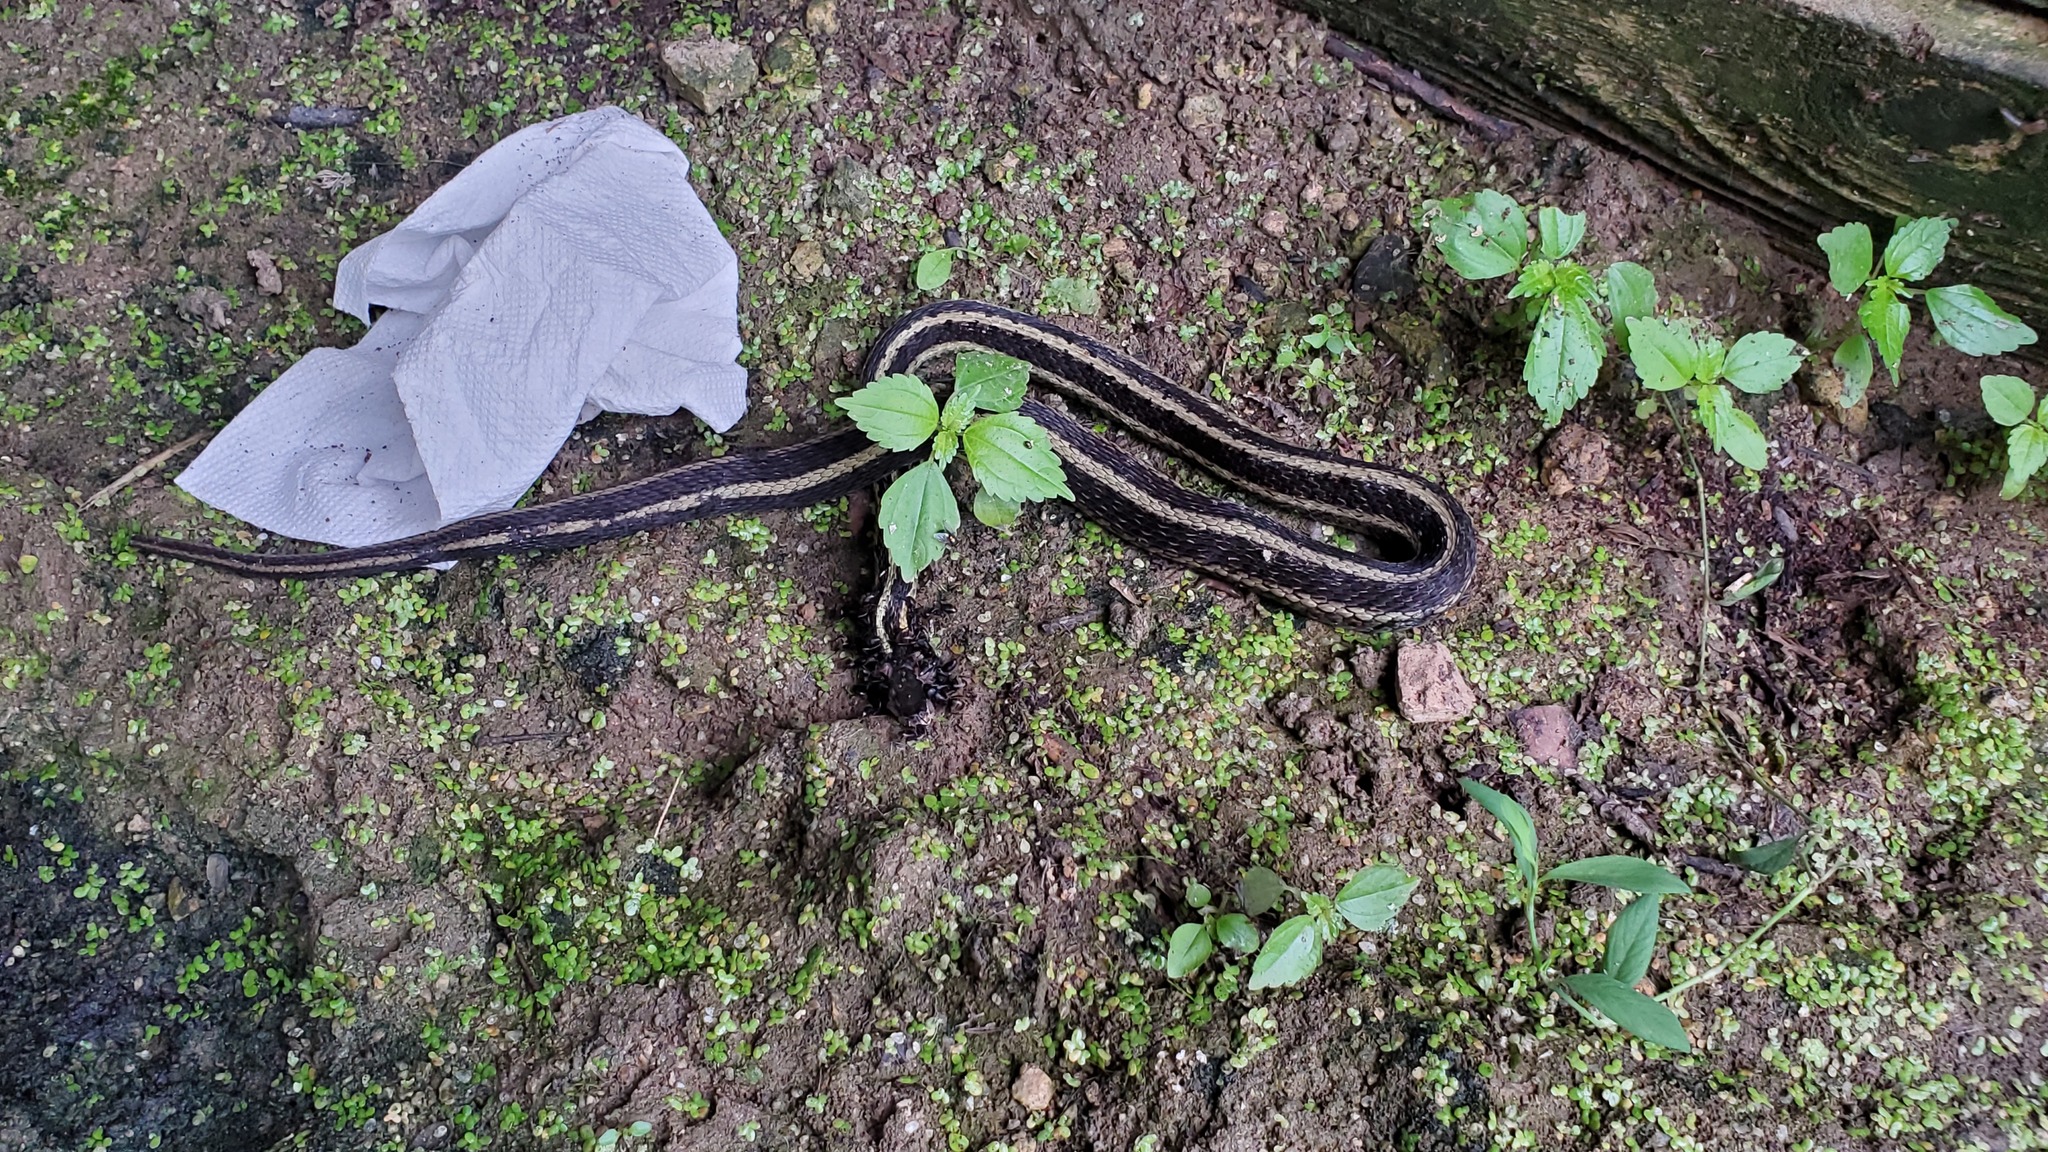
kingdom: Animalia
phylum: Chordata
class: Squamata
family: Colubridae
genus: Thamnophis
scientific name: Thamnophis sirtalis
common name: Common garter snake
